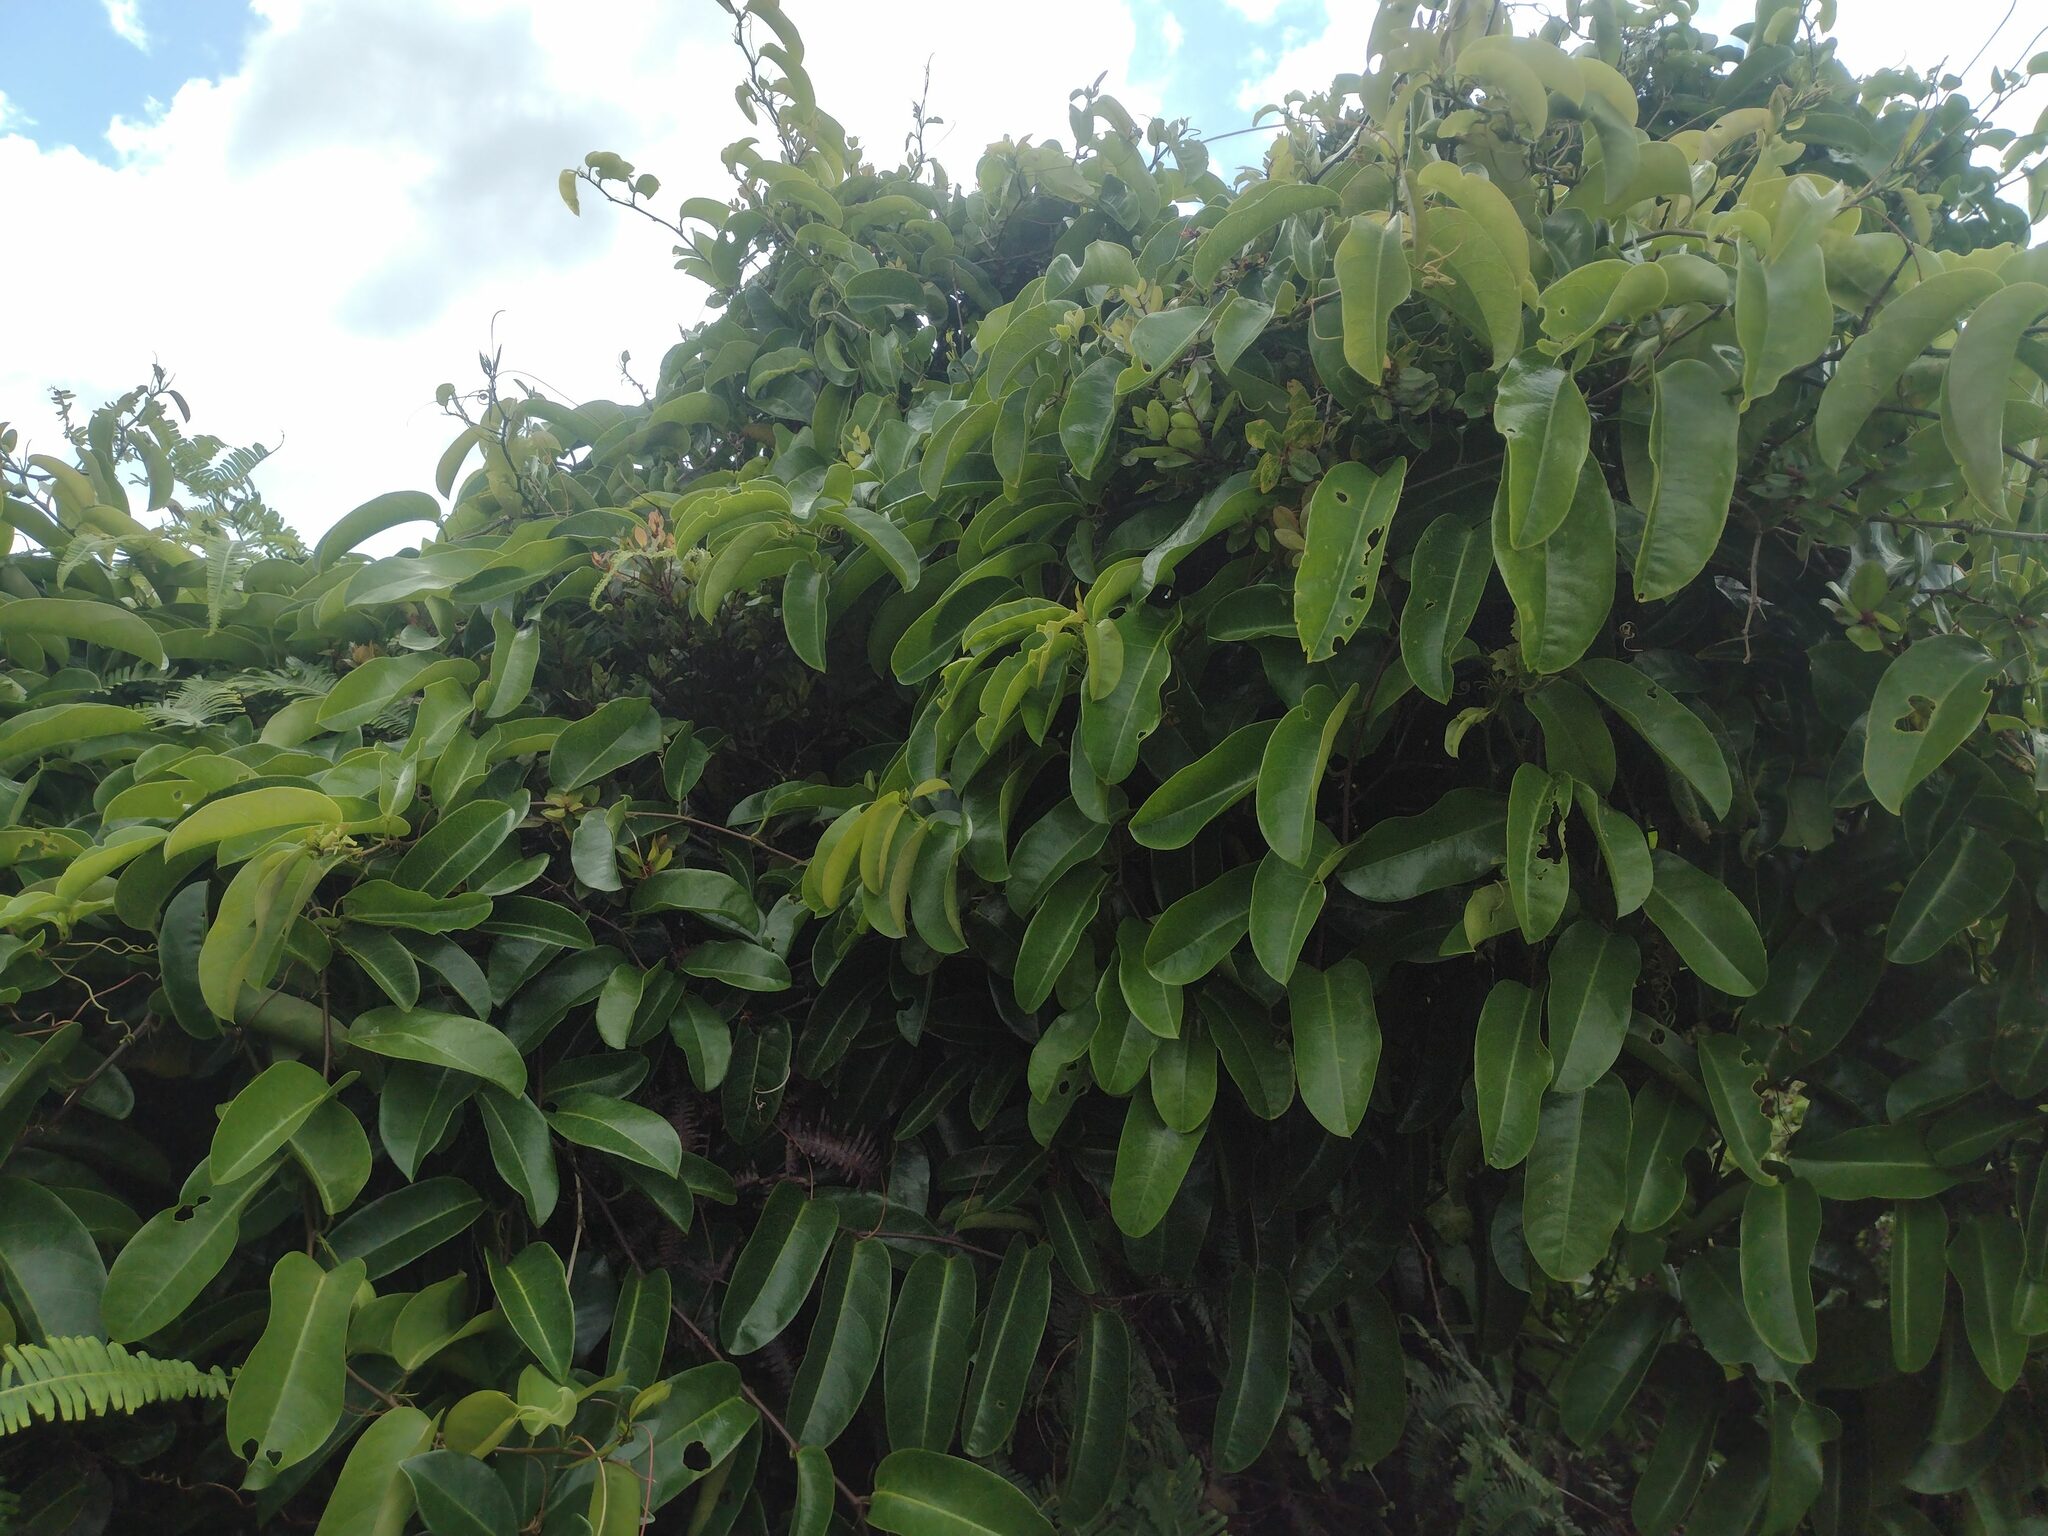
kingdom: Plantae
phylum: Tracheophyta
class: Magnoliopsida
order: Malpighiales
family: Passifloraceae
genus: Passiflora
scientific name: Passiflora laurifolia
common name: Bell apple
